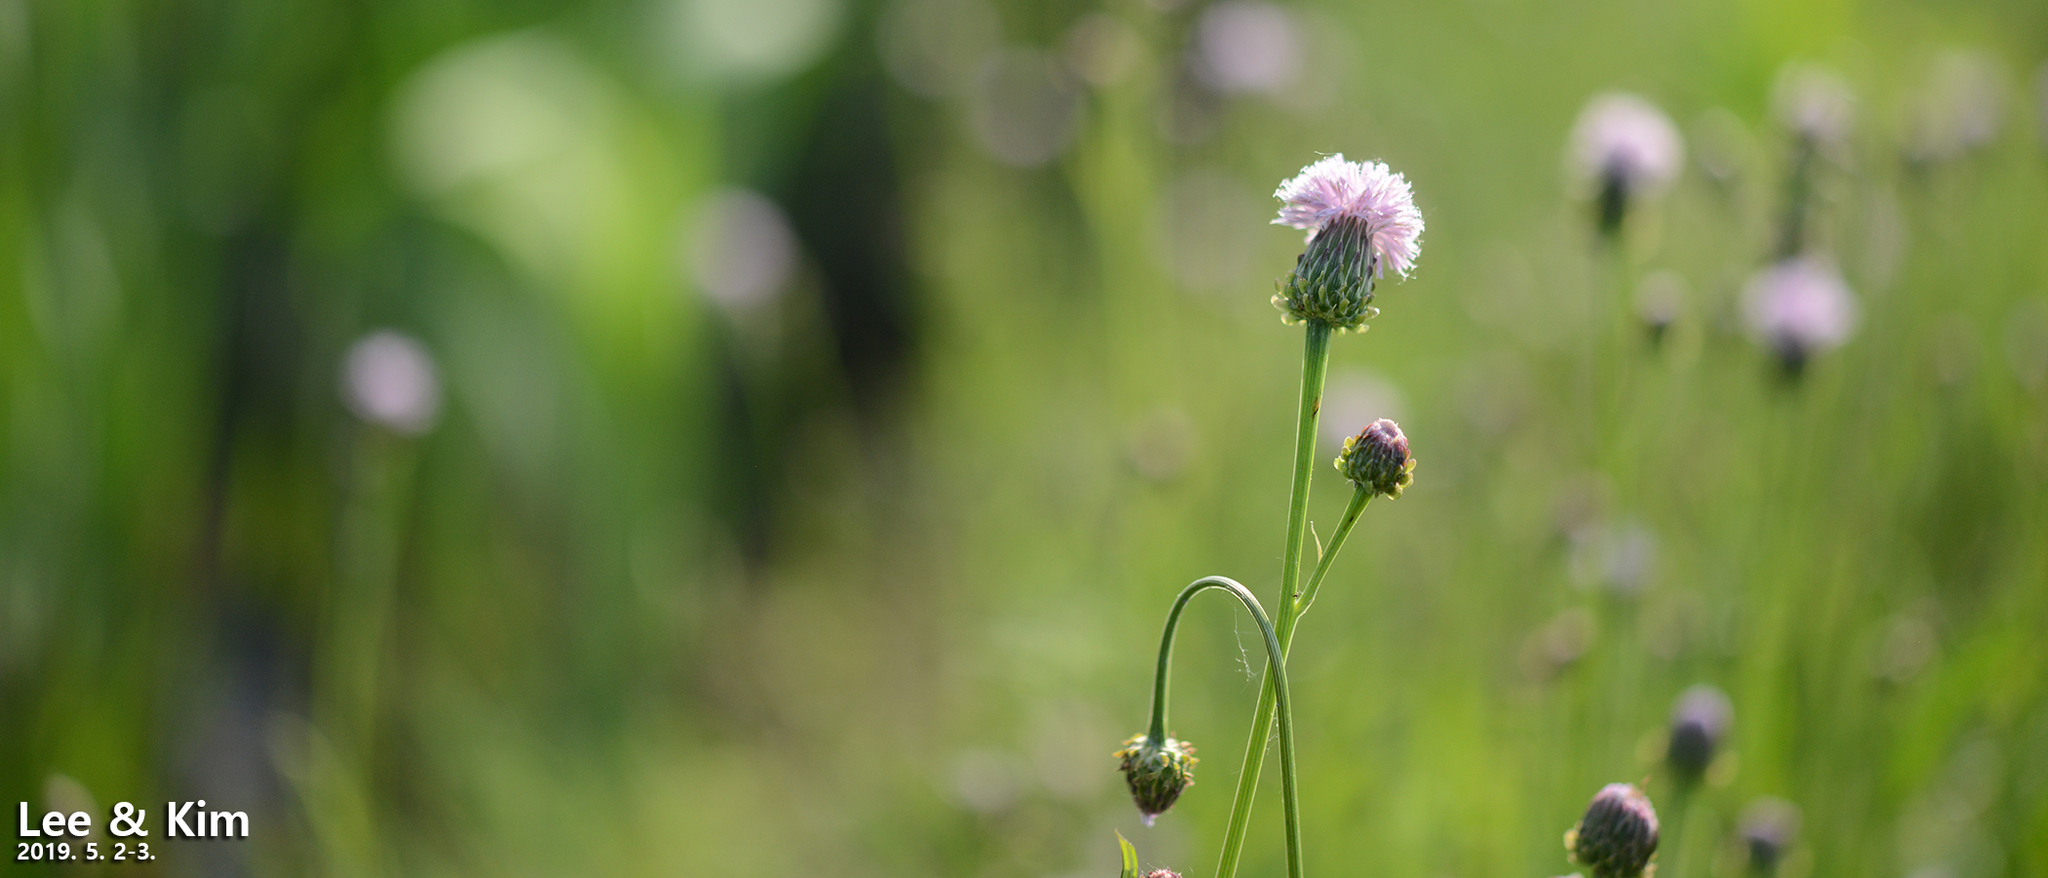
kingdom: Plantae
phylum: Tracheophyta
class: Magnoliopsida
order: Asterales
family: Asteraceae
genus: Saussurea
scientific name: Saussurea lyrata
